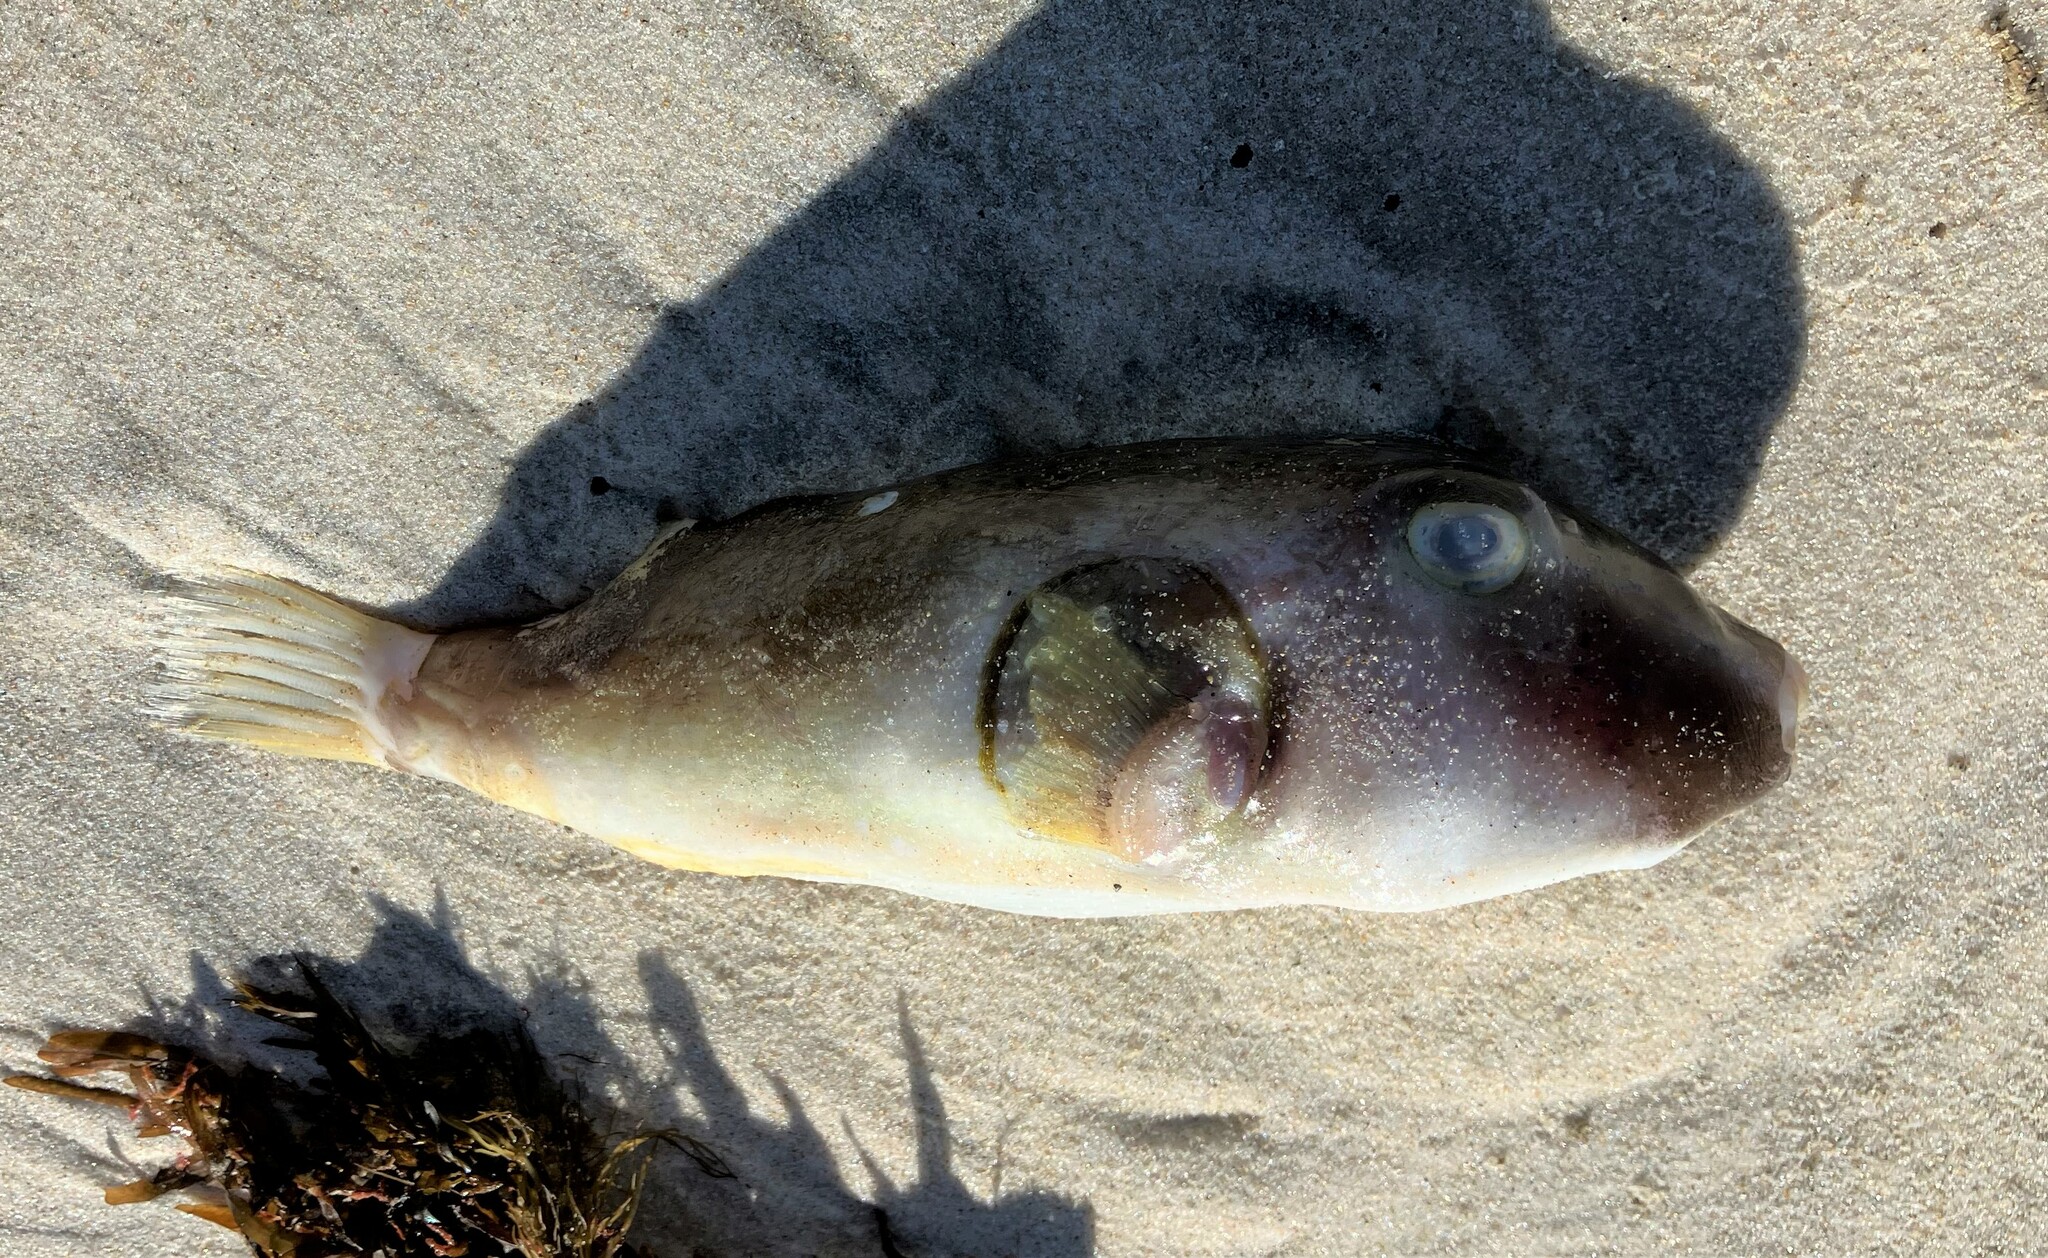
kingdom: Animalia
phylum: Chordata
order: Tetraodontiformes
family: Tetraodontidae
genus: Omegophora
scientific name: Omegophora armilla
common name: Ringed pufferfish
